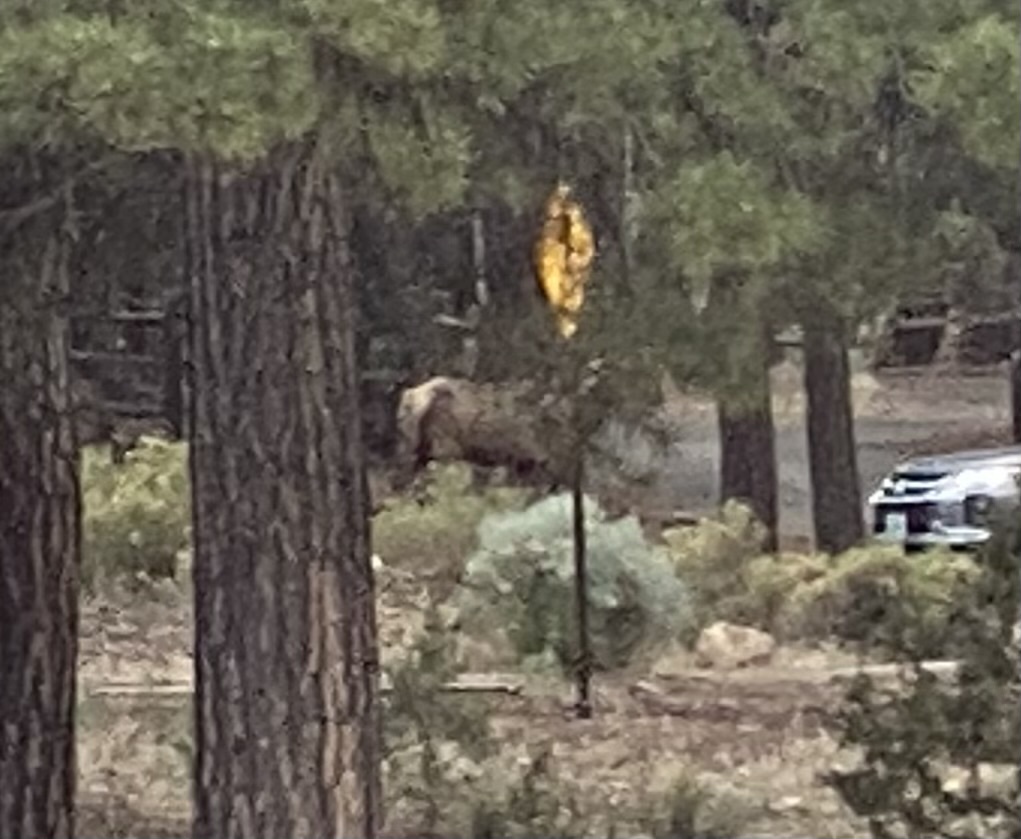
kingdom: Animalia
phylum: Chordata
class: Mammalia
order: Artiodactyla
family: Cervidae
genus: Cervus
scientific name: Cervus elaphus
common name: Red deer
